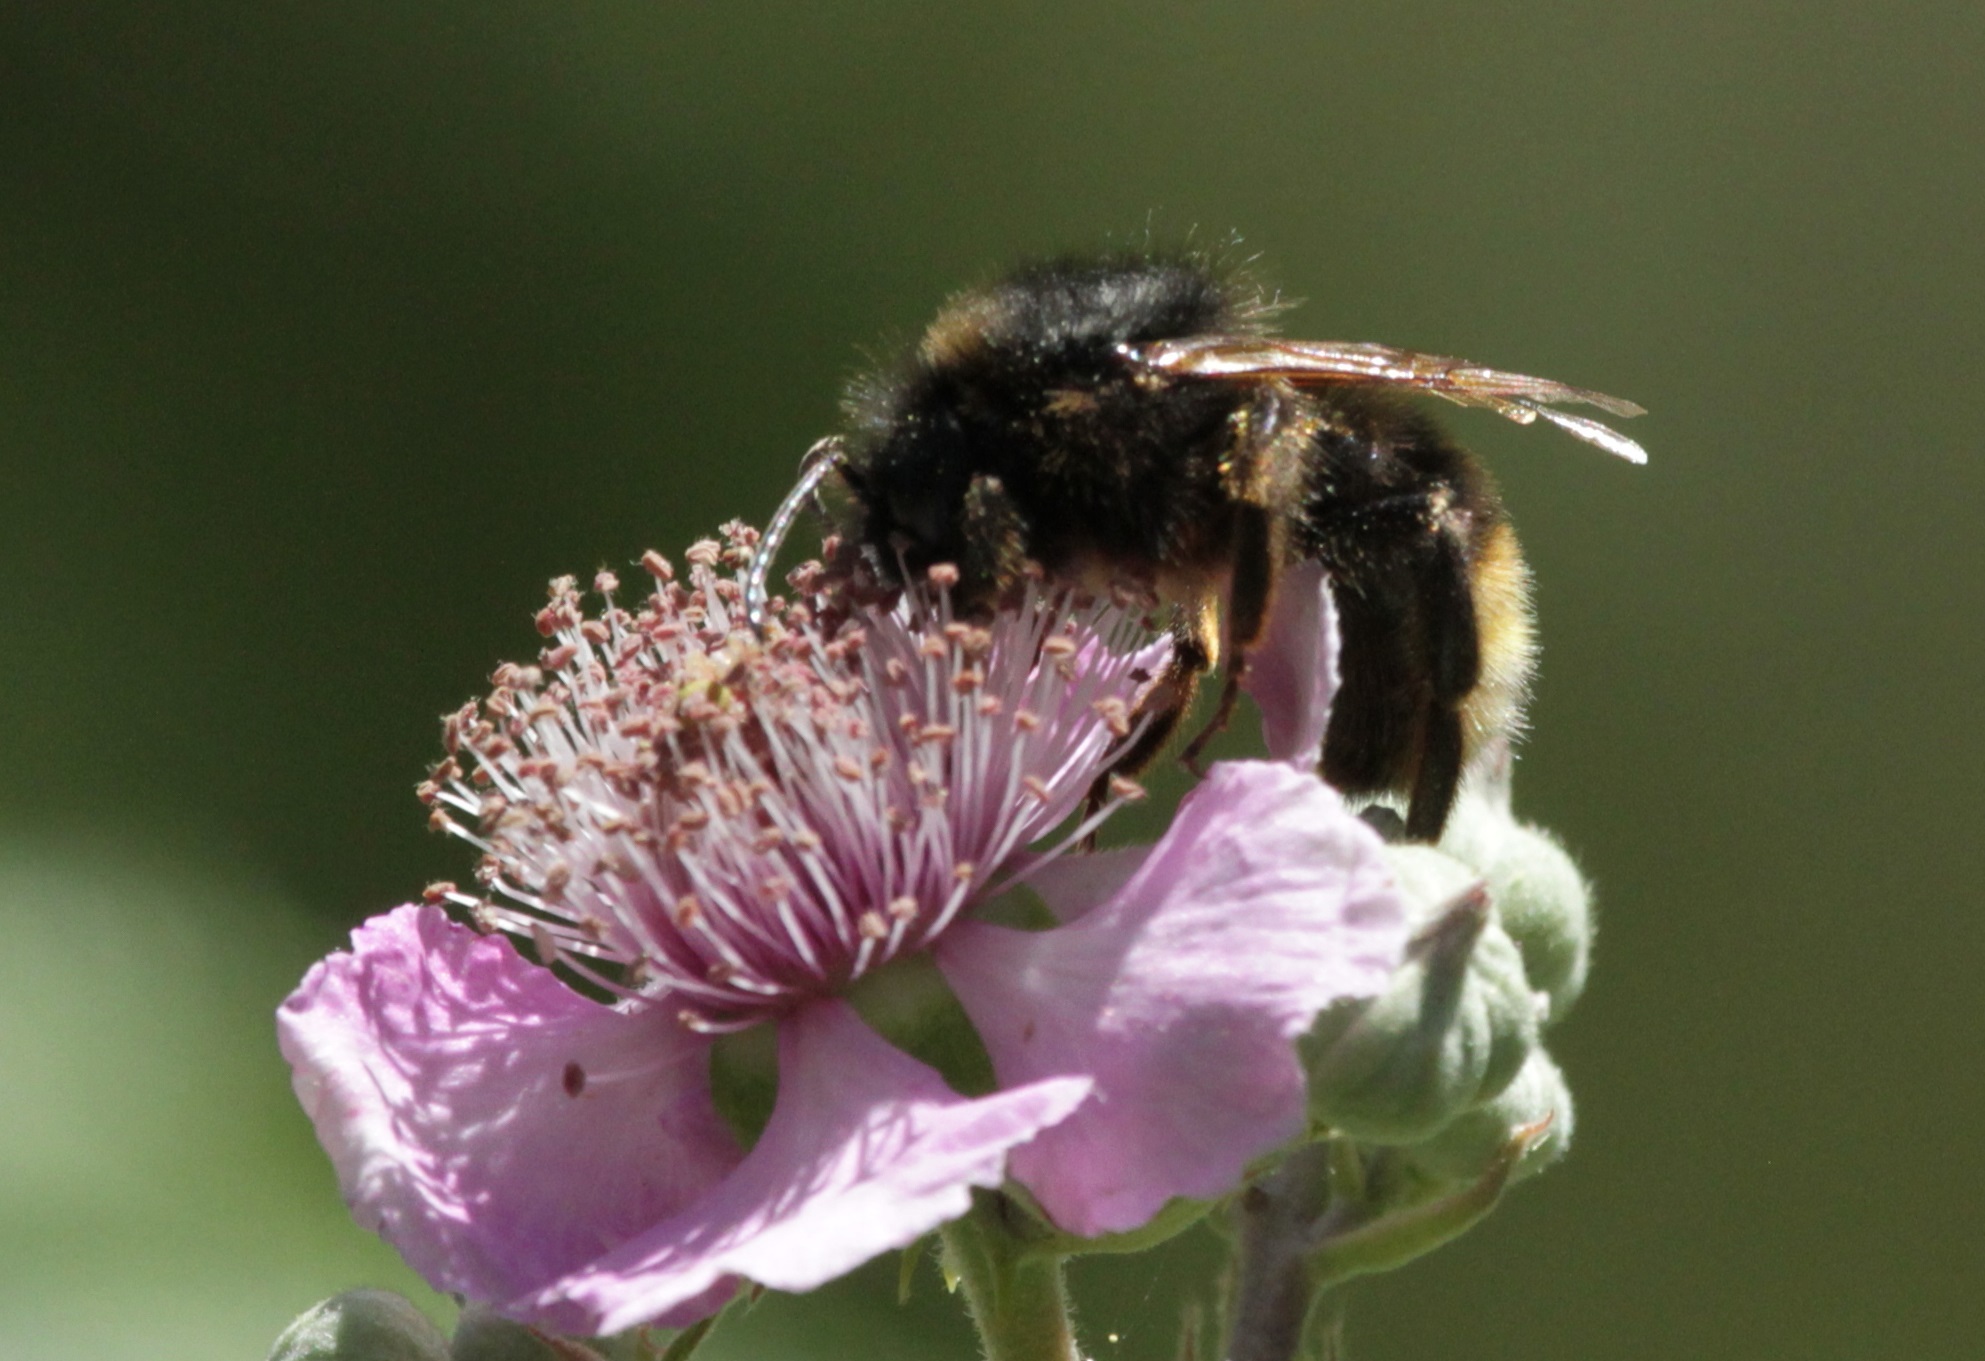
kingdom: Animalia
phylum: Arthropoda
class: Insecta
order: Hymenoptera
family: Apidae
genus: Bombus
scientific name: Bombus perezi
